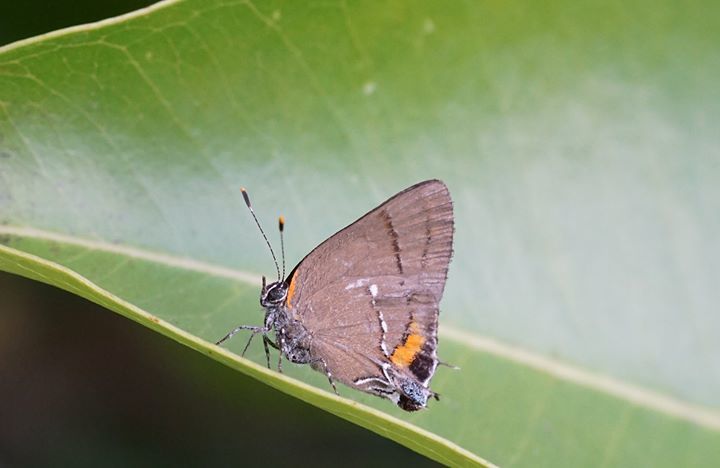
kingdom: Animalia
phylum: Arthropoda
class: Insecta
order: Lepidoptera
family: Lycaenidae
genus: Thecla
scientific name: Thecla angelia
